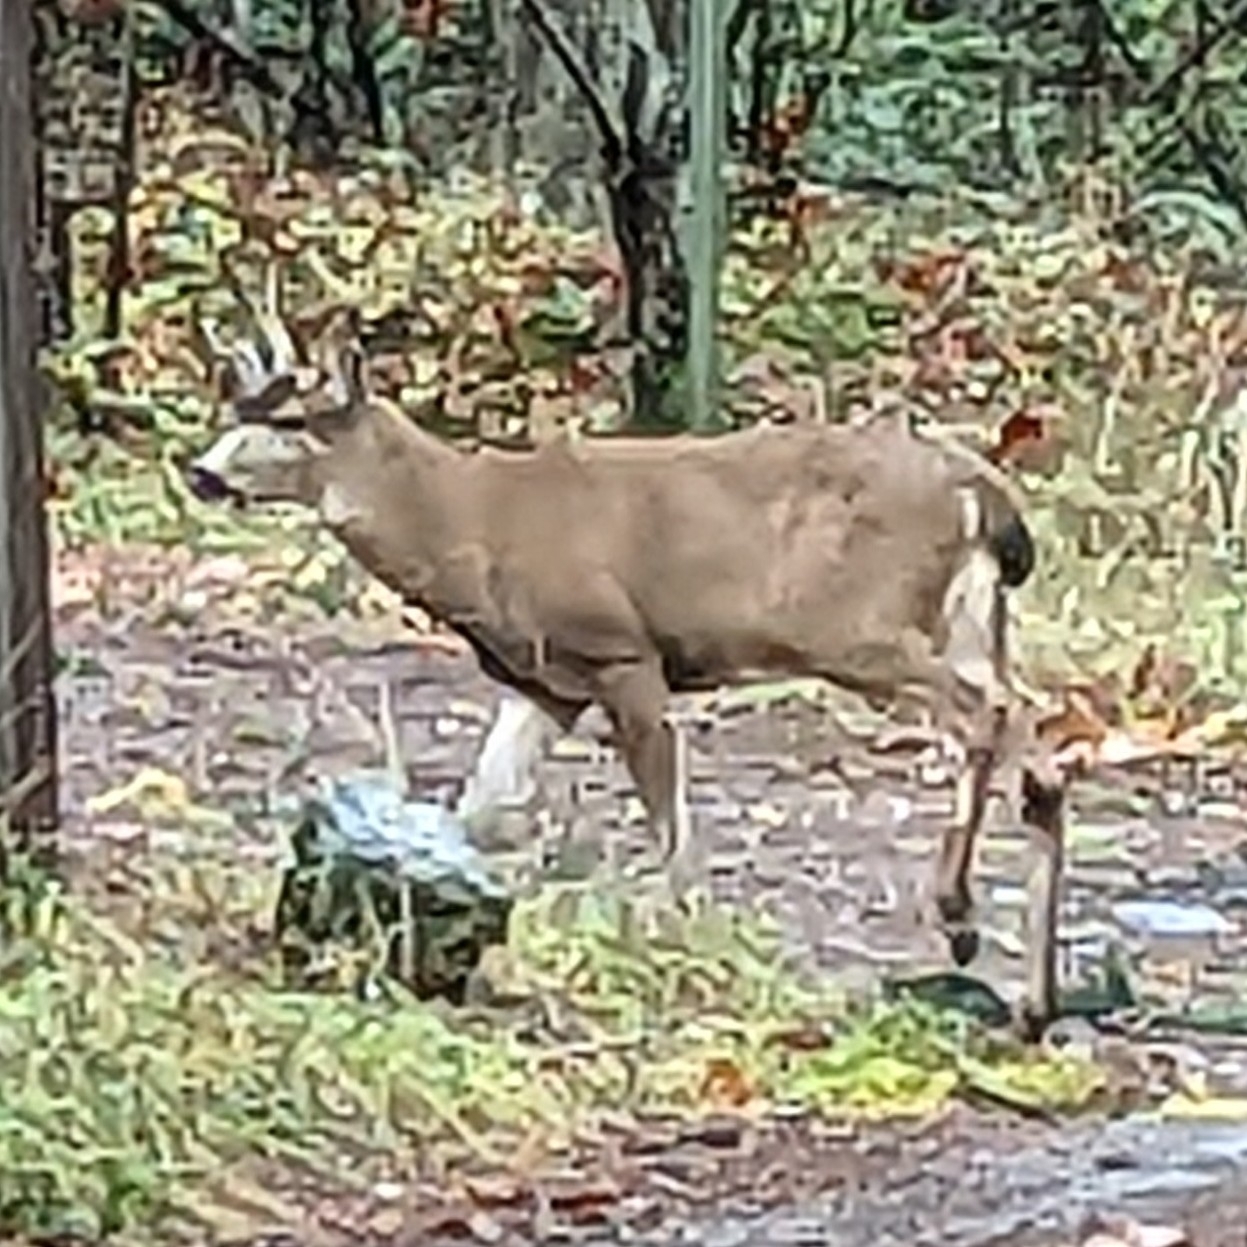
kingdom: Animalia
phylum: Chordata
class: Mammalia
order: Artiodactyla
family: Cervidae
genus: Odocoileus
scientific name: Odocoileus hemionus
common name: Mule deer
